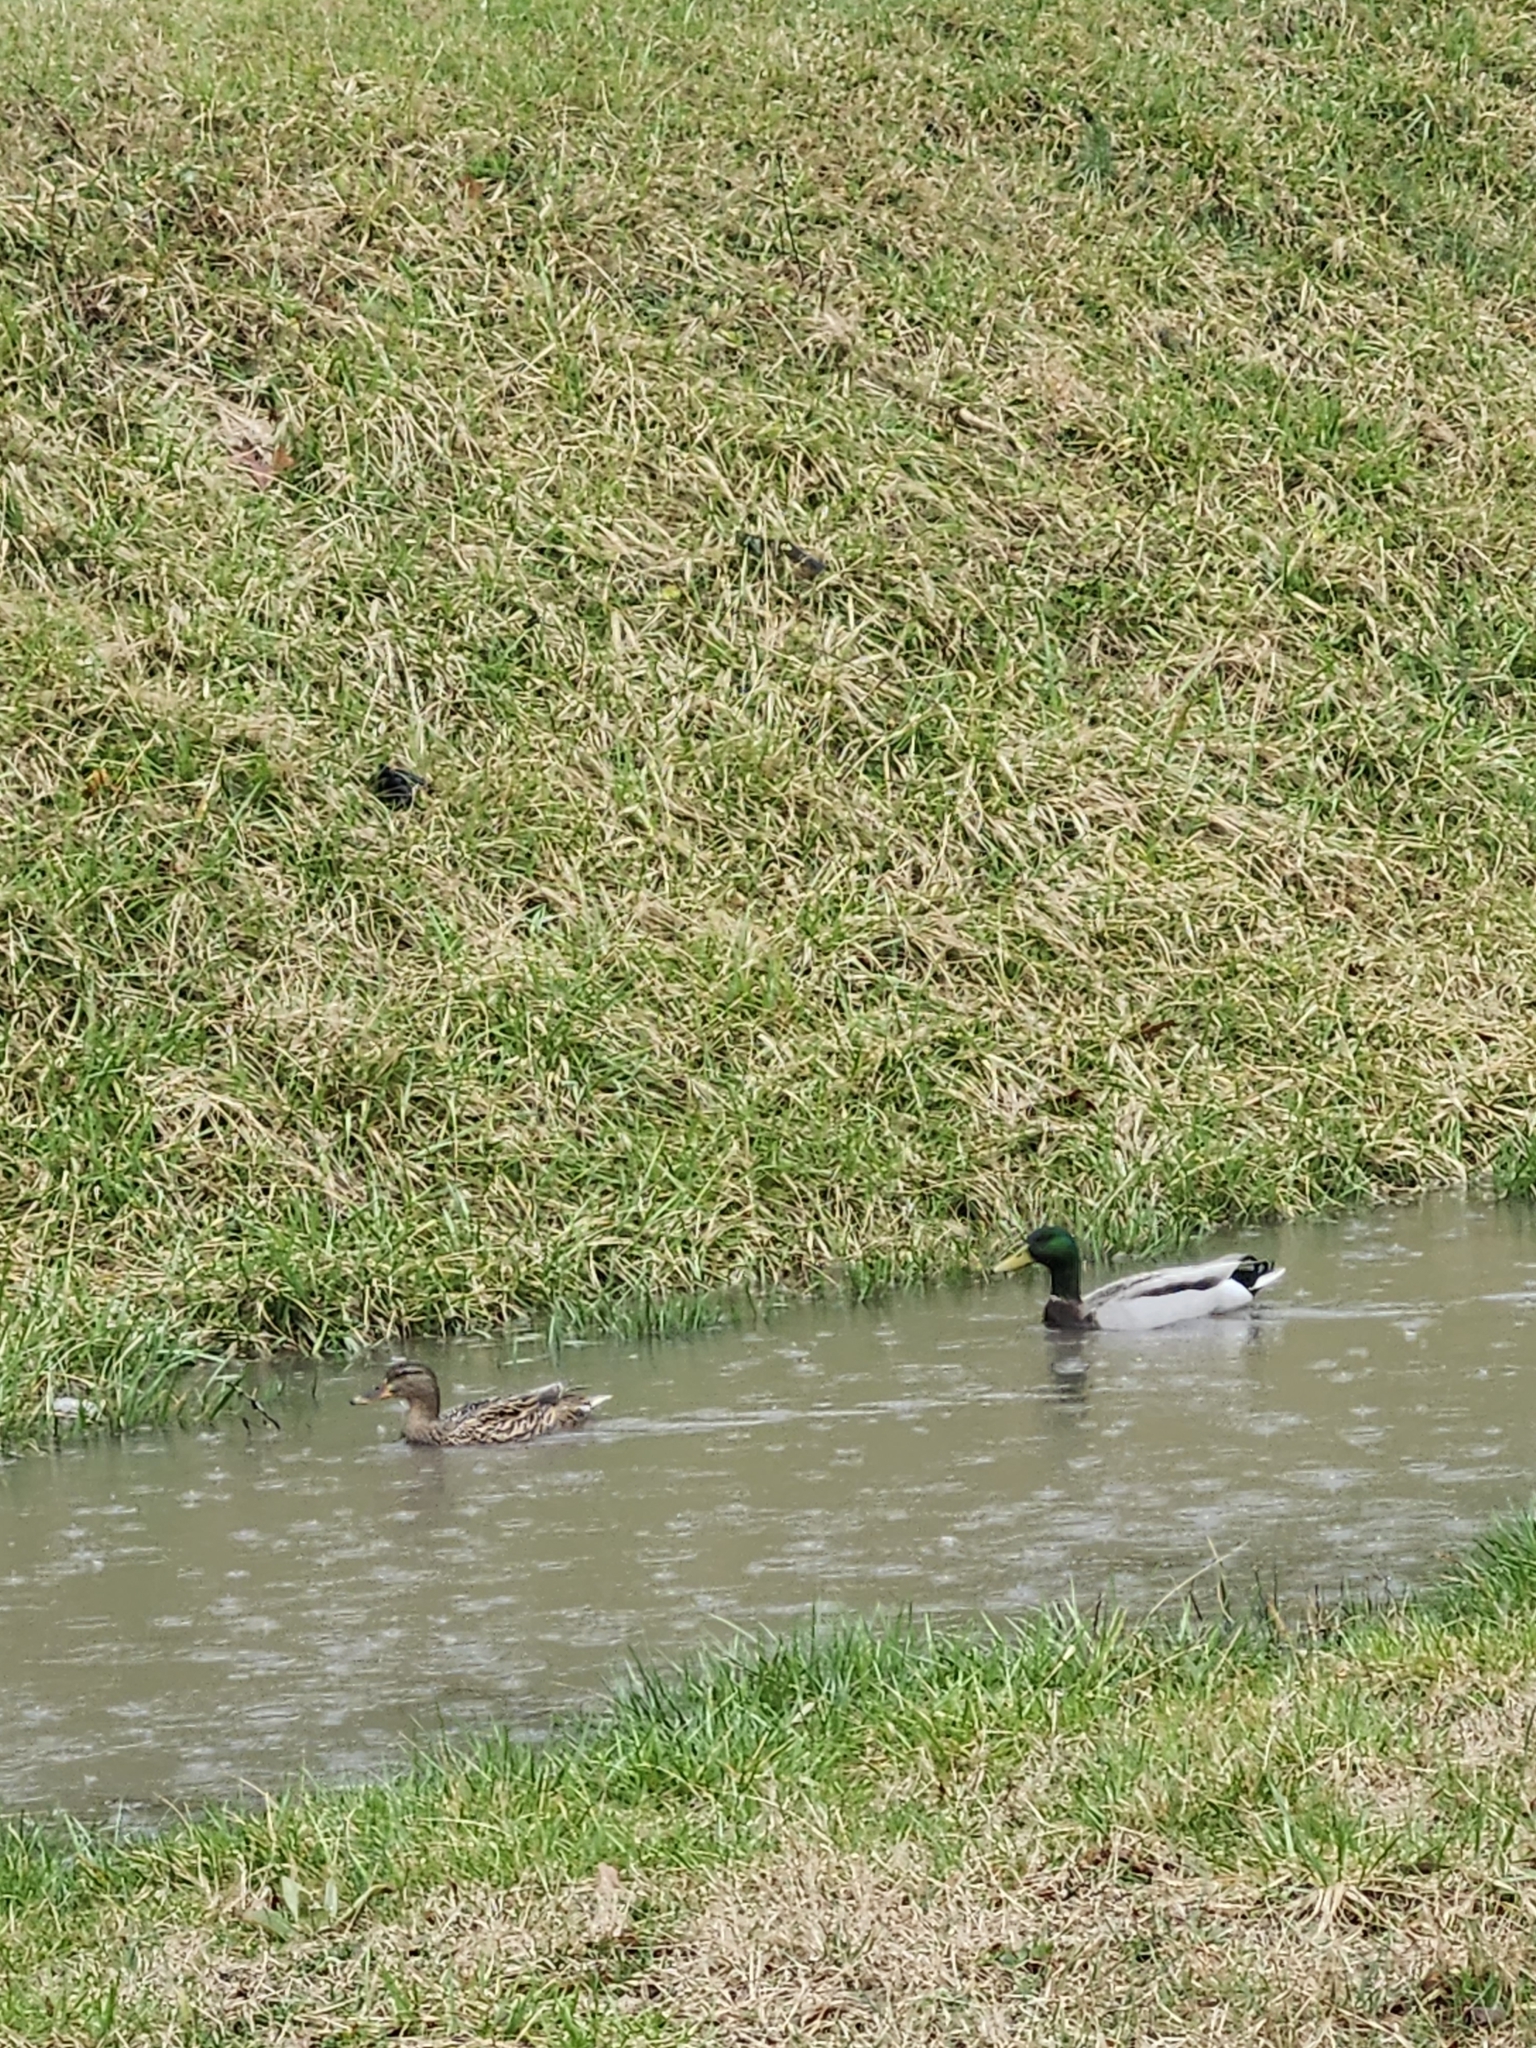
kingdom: Animalia
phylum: Chordata
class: Aves
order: Anseriformes
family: Anatidae
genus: Anas
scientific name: Anas platyrhynchos
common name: Mallard
